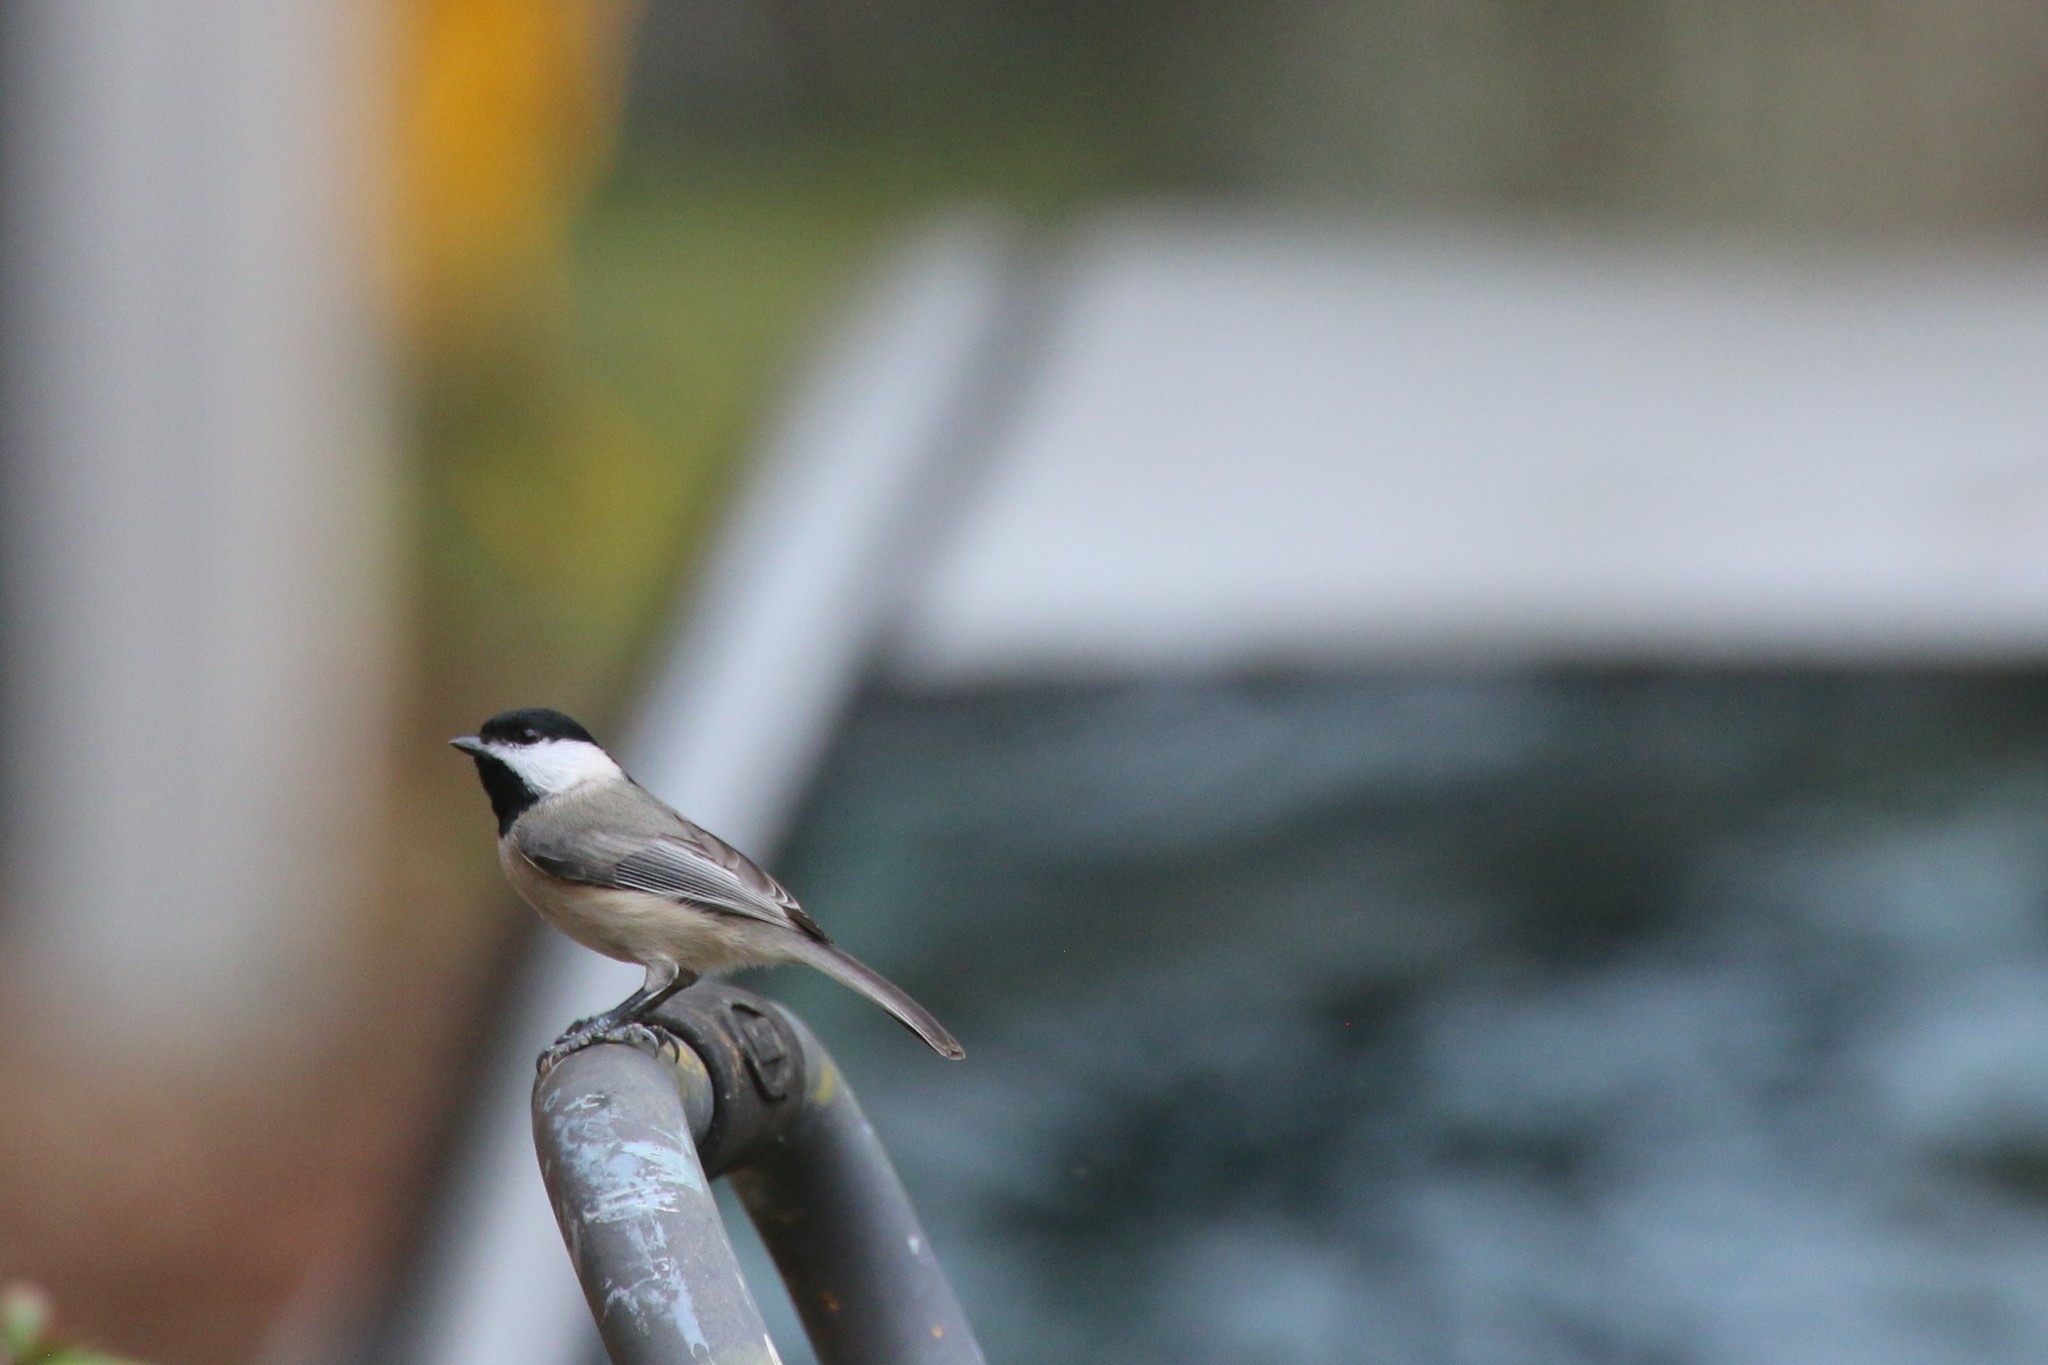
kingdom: Animalia
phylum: Chordata
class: Aves
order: Passeriformes
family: Paridae
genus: Poecile
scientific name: Poecile carolinensis
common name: Carolina chickadee
